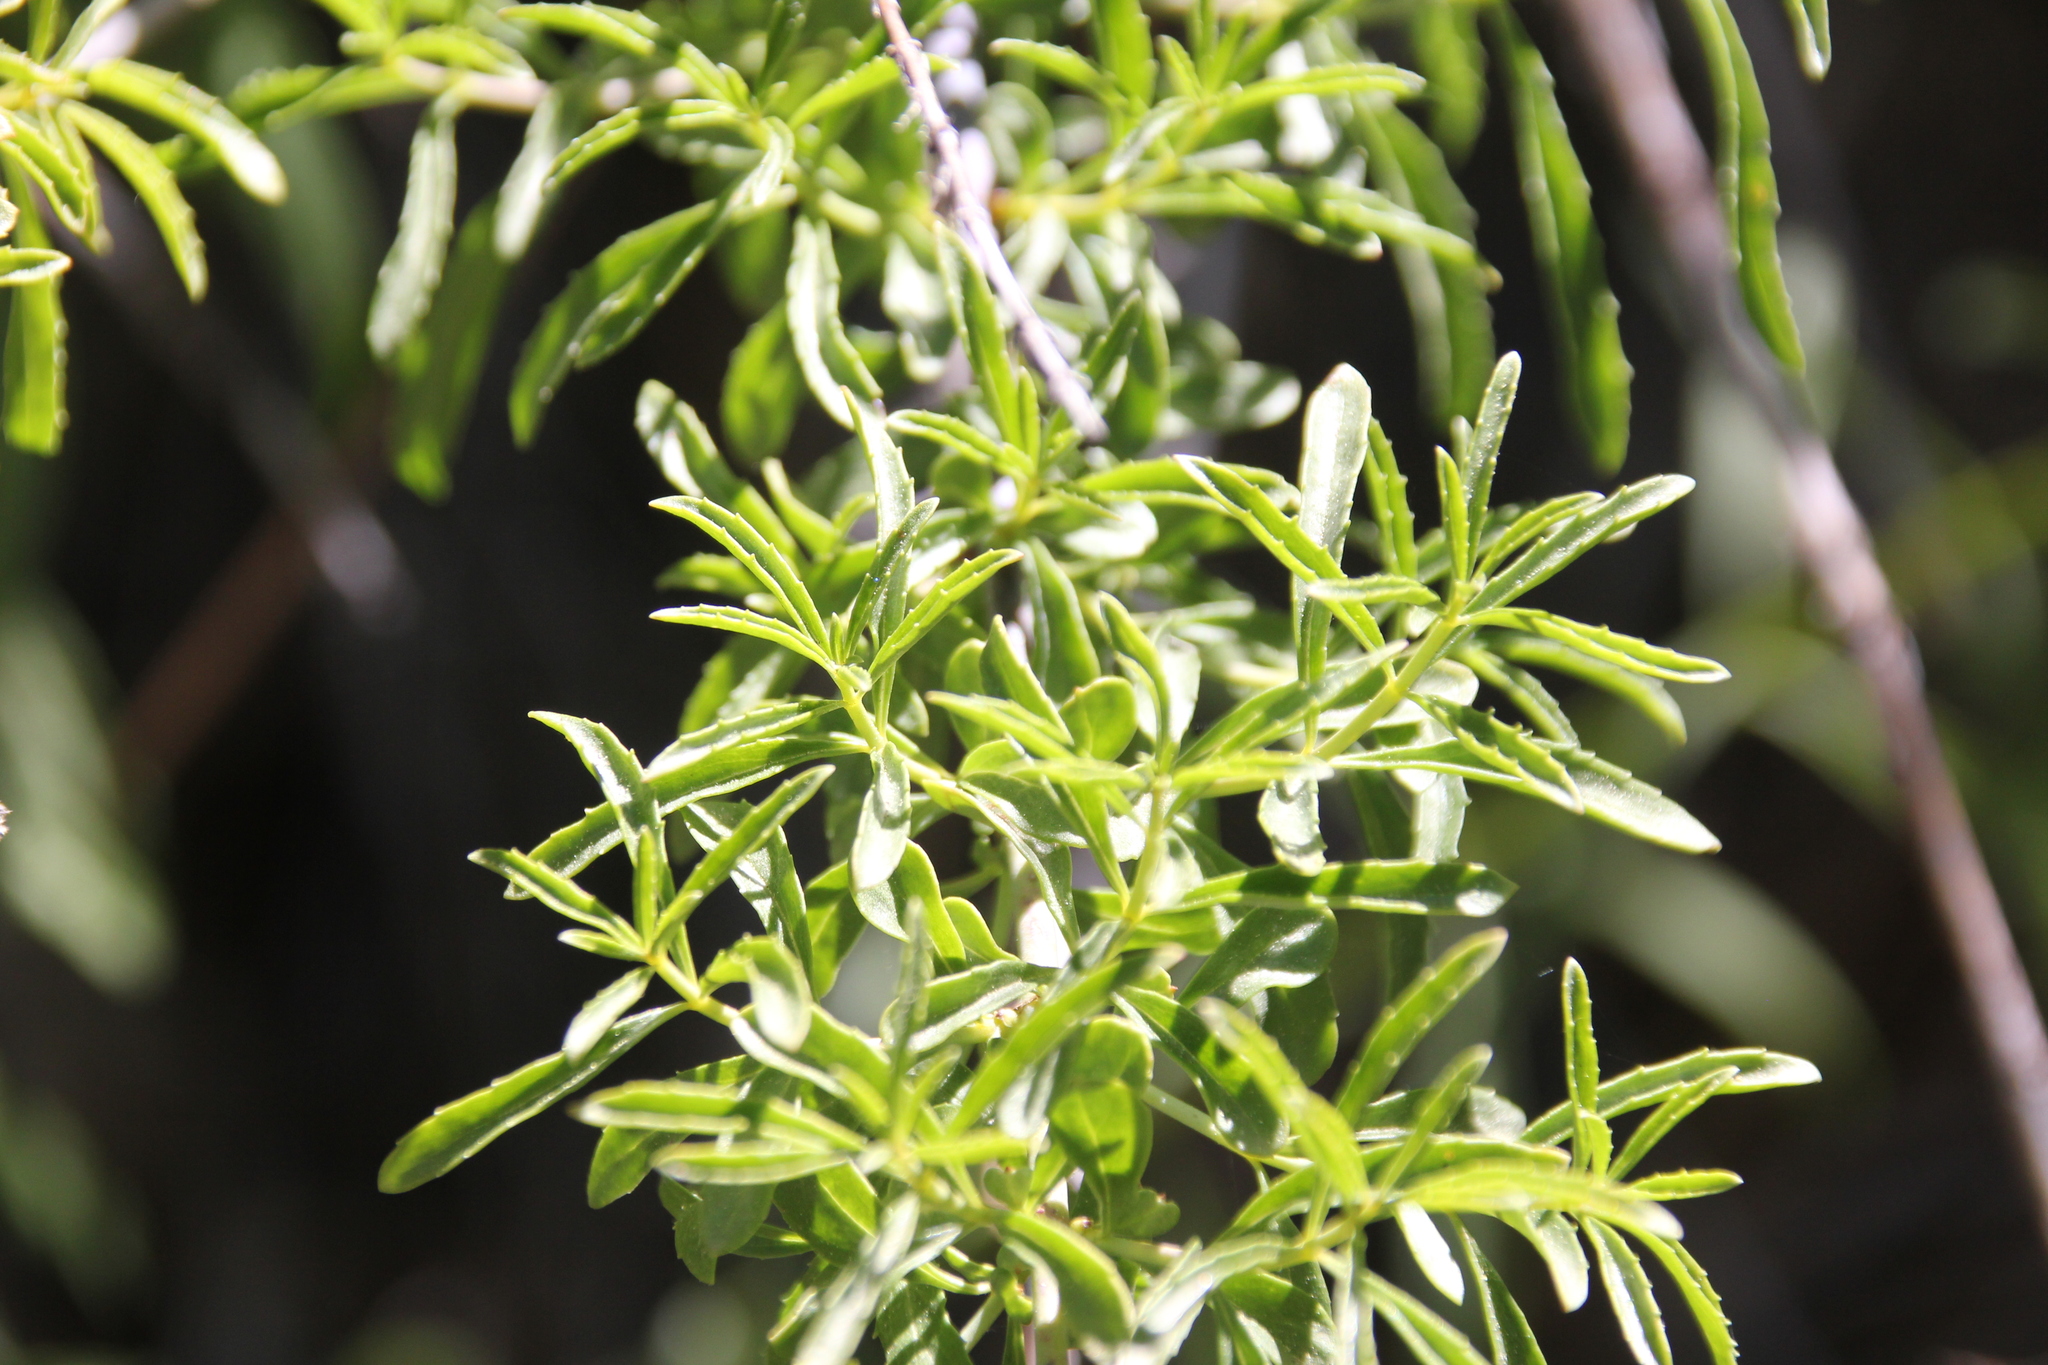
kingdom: Plantae
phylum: Tracheophyta
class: Magnoliopsida
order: Lamiales
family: Plantaginaceae
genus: Keckiella
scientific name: Keckiella ternata
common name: Scarlet keckiella
